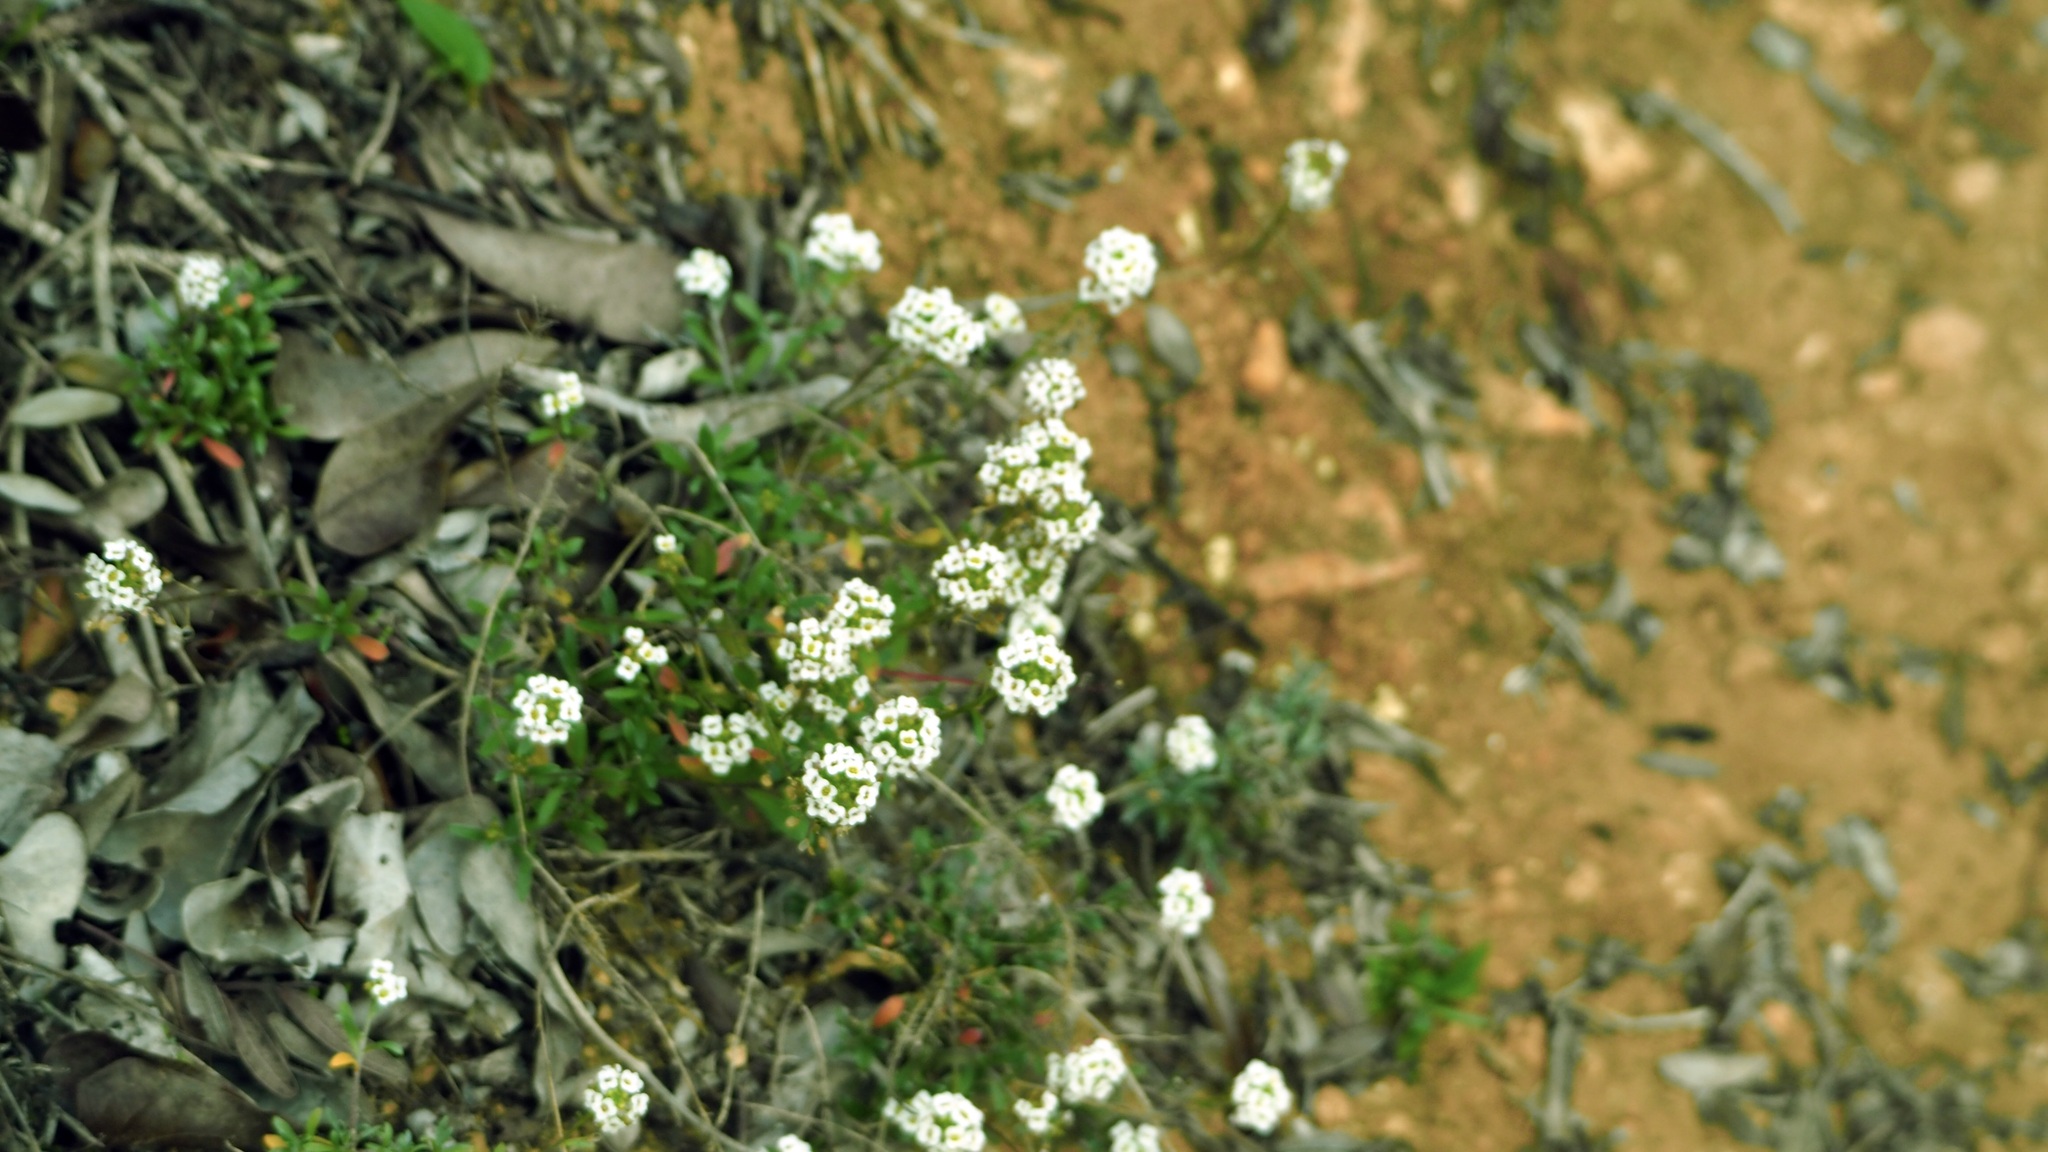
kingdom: Plantae
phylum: Tracheophyta
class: Magnoliopsida
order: Brassicales
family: Brassicaceae
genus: Lobularia
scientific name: Lobularia maritima
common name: Sweet alison
